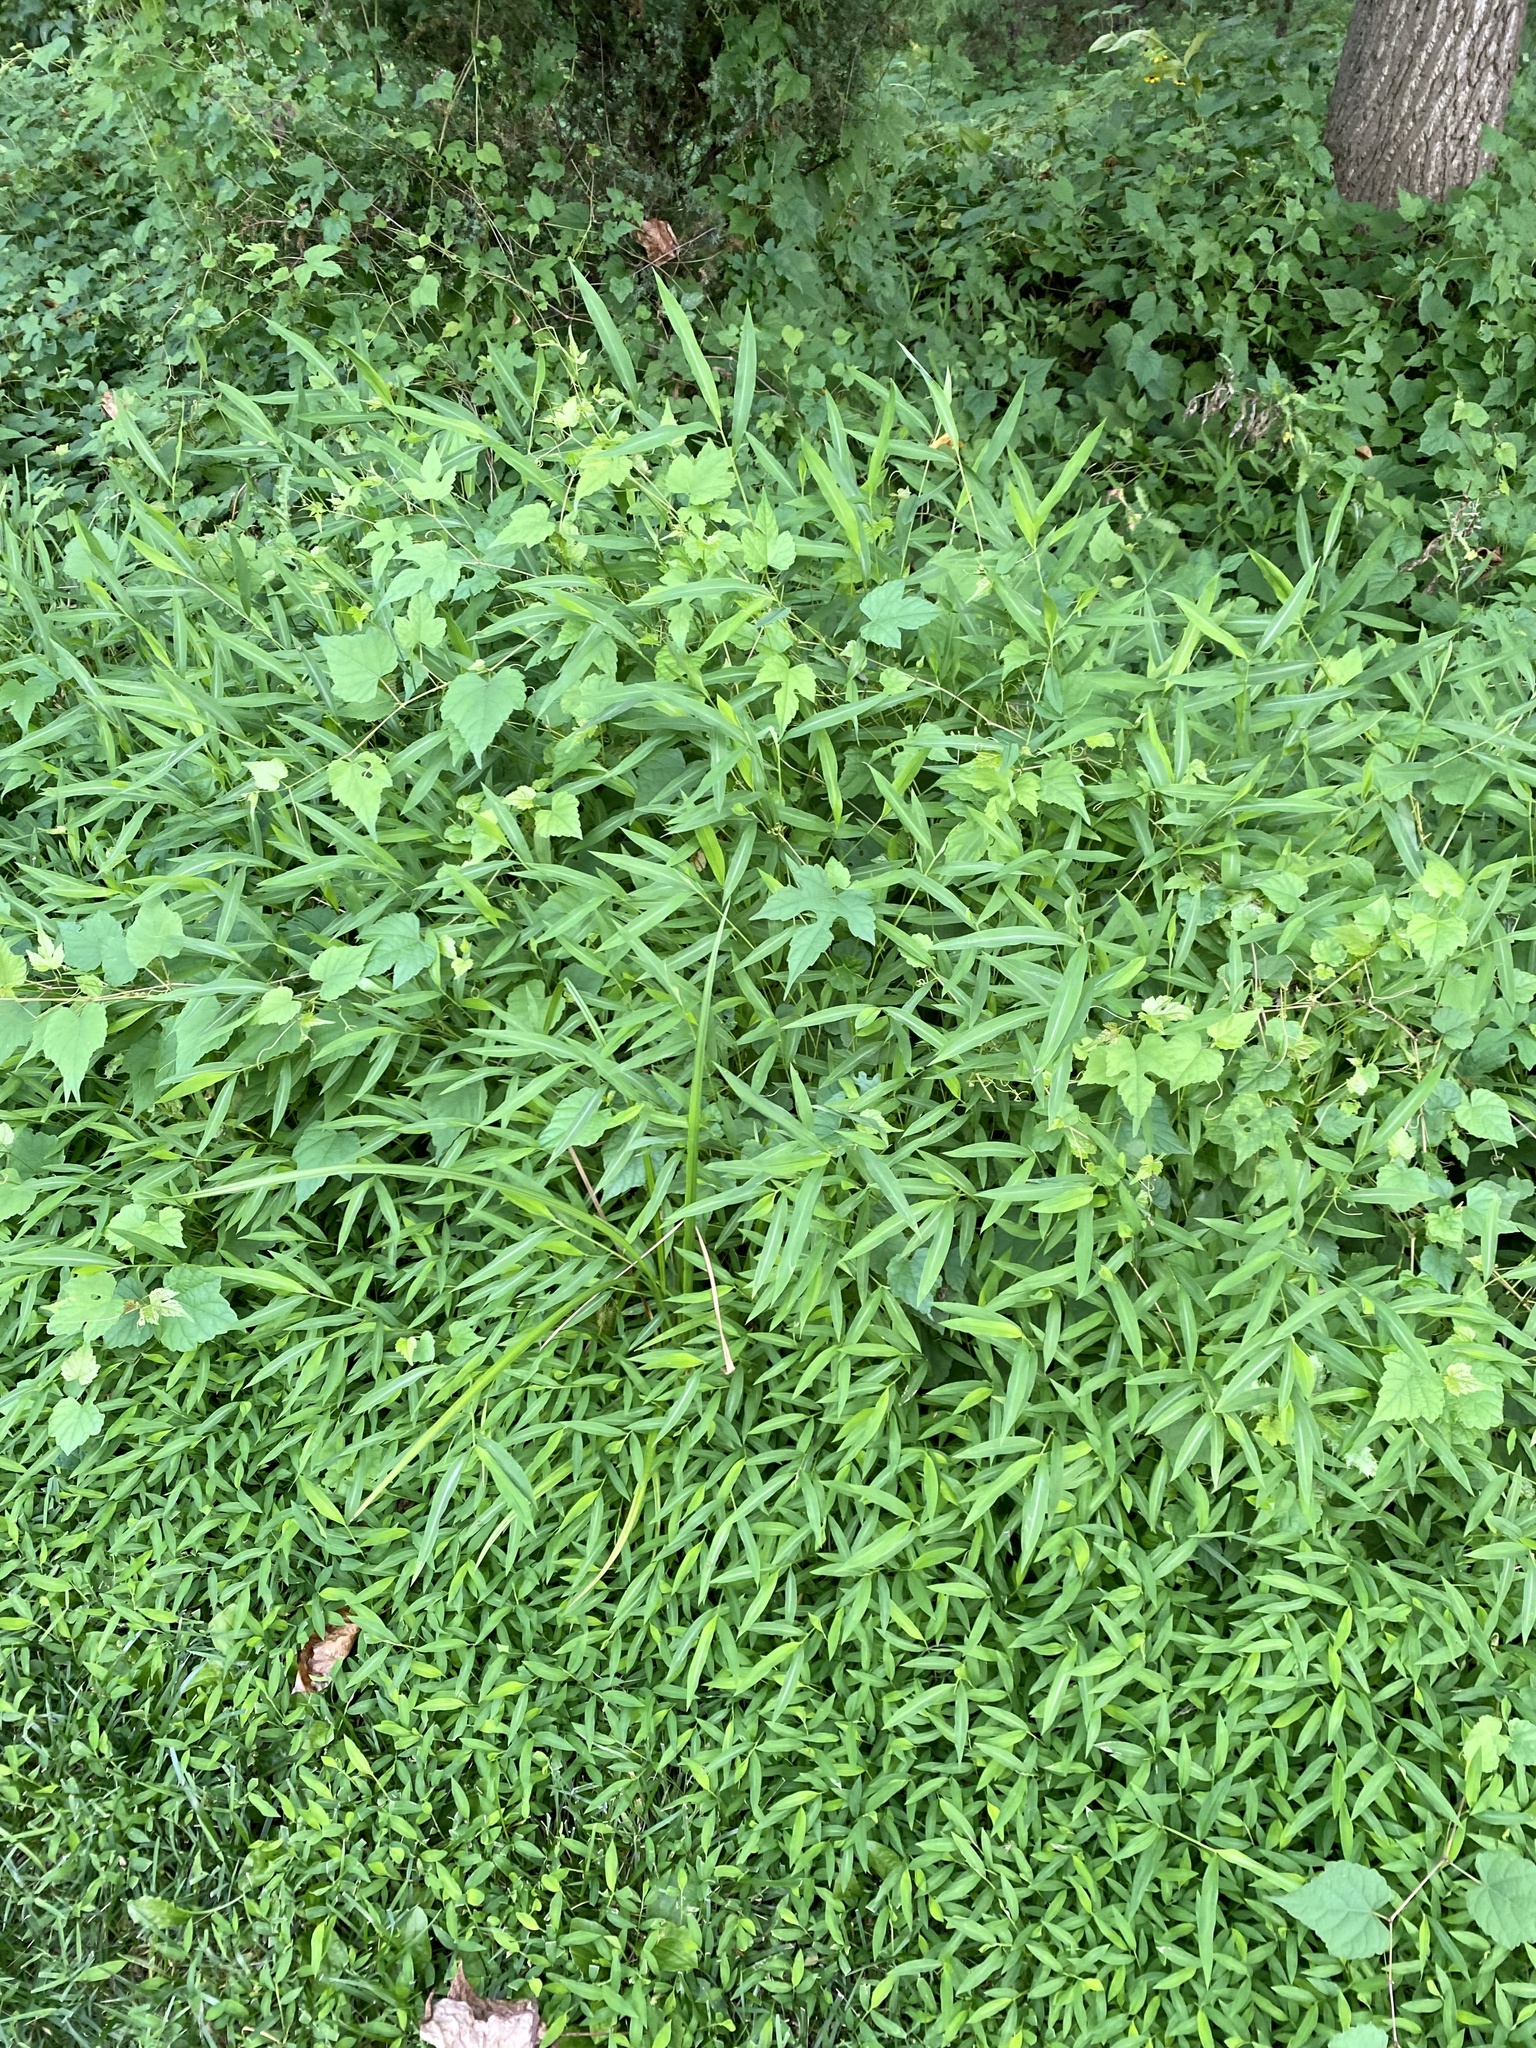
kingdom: Plantae
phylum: Tracheophyta
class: Liliopsida
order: Poales
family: Poaceae
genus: Microstegium
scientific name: Microstegium vimineum
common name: Japanese stiltgrass
